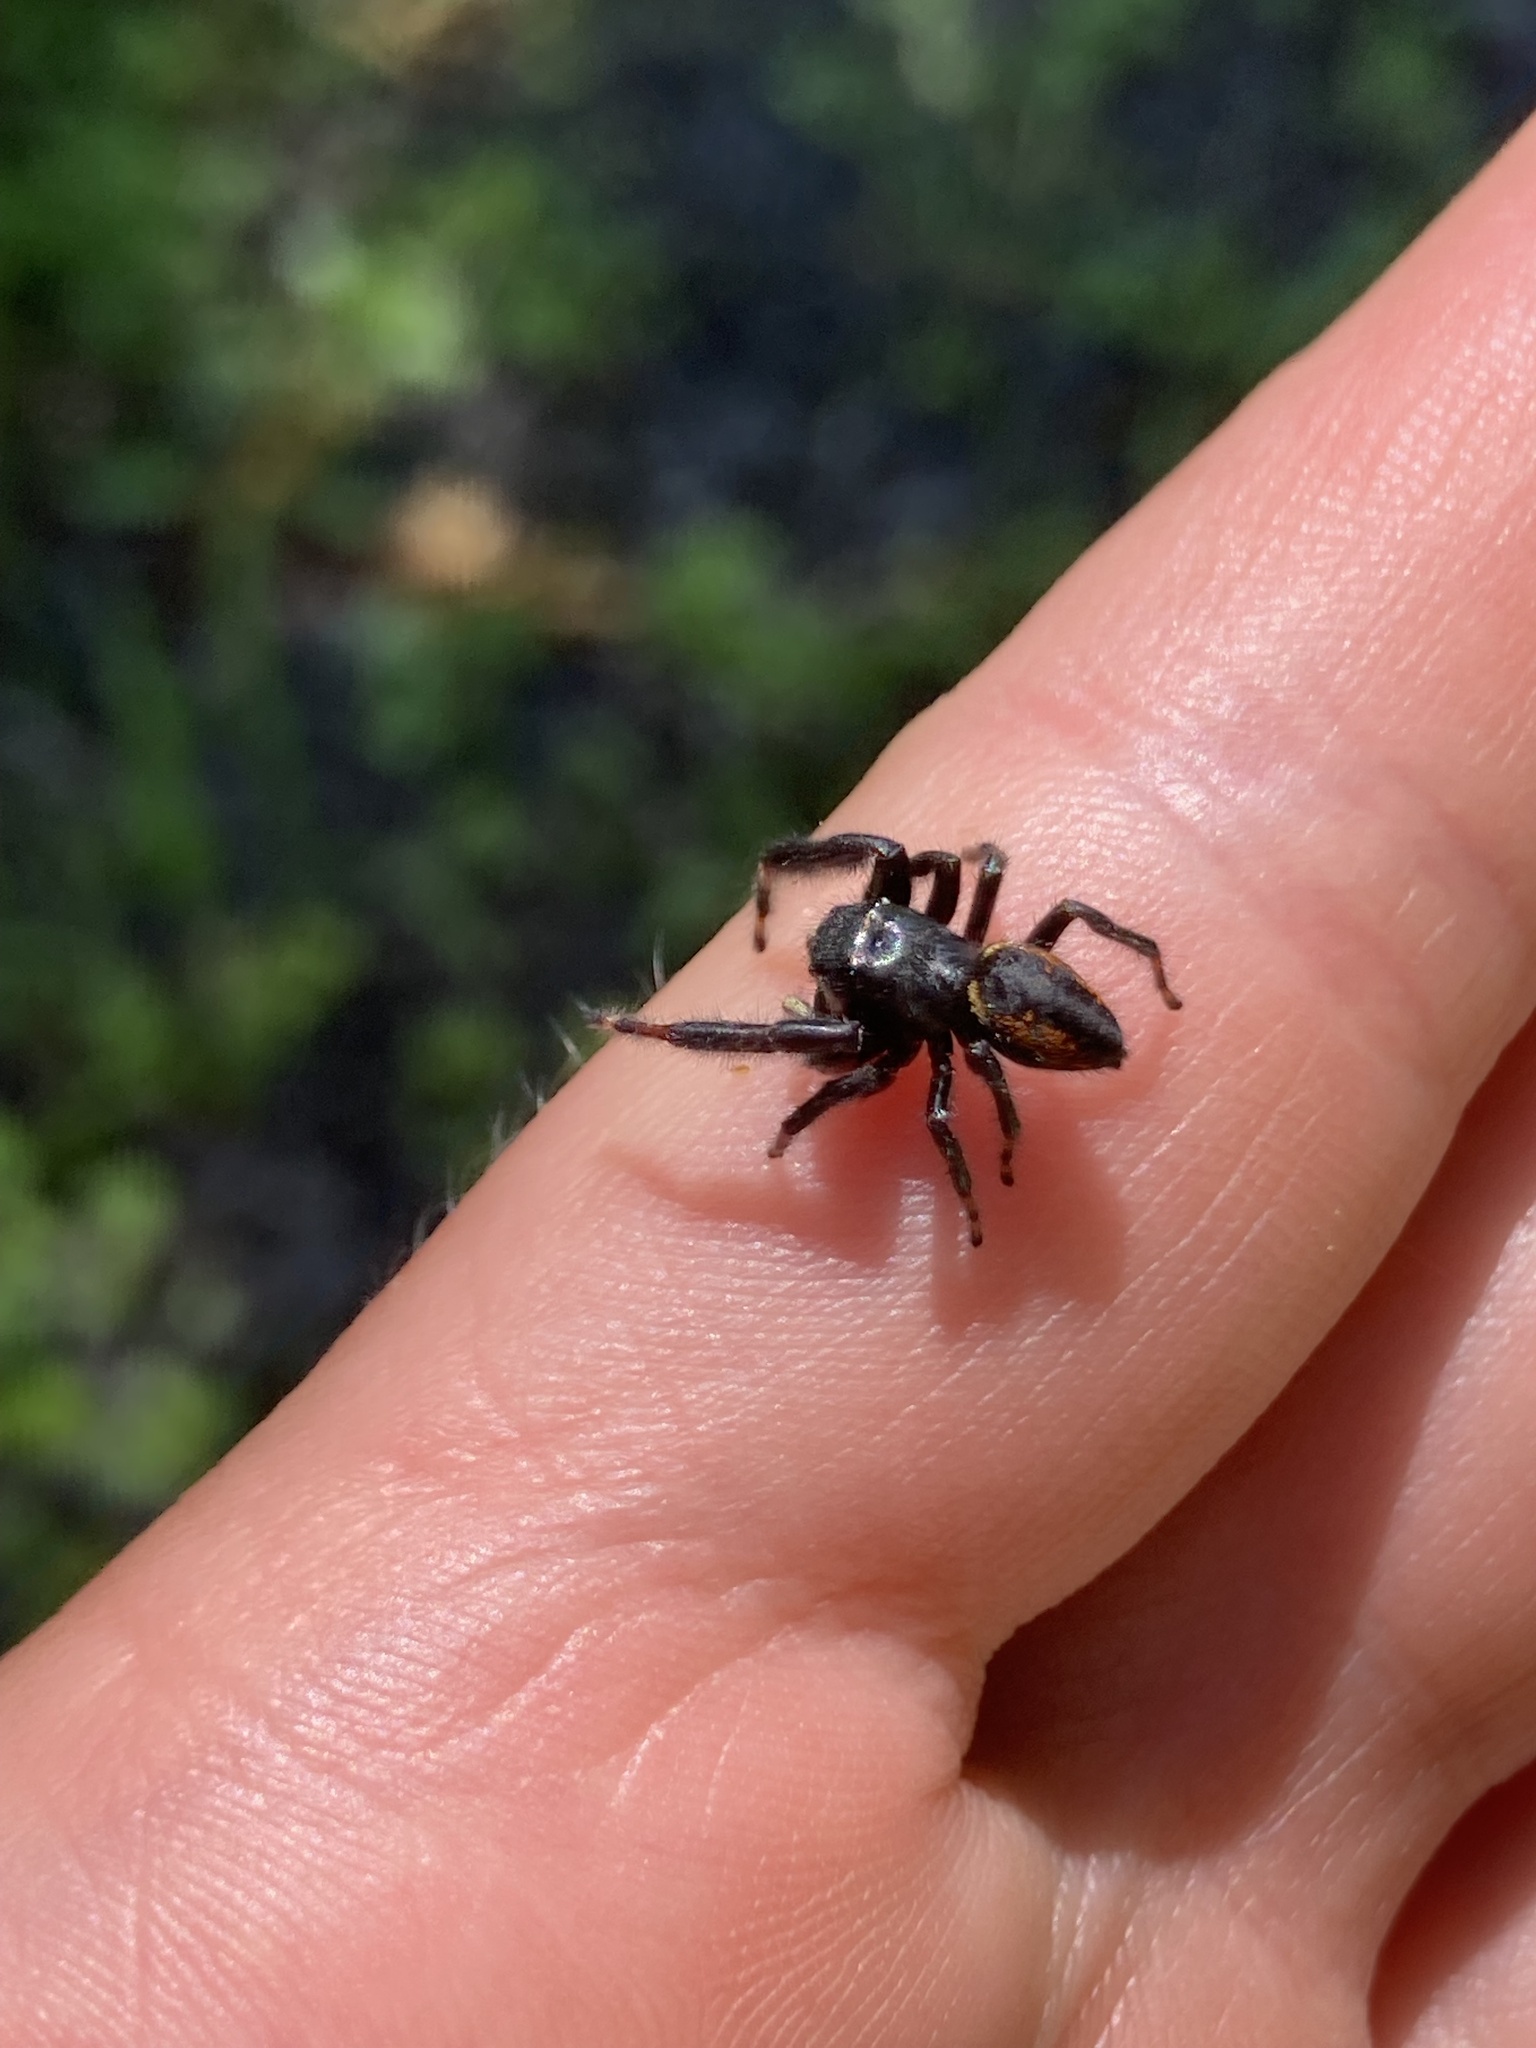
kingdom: Animalia
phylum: Arthropoda
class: Arachnida
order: Araneae
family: Salticidae
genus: Phidippus
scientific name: Phidippus clarus
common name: Brilliant jumping spider
